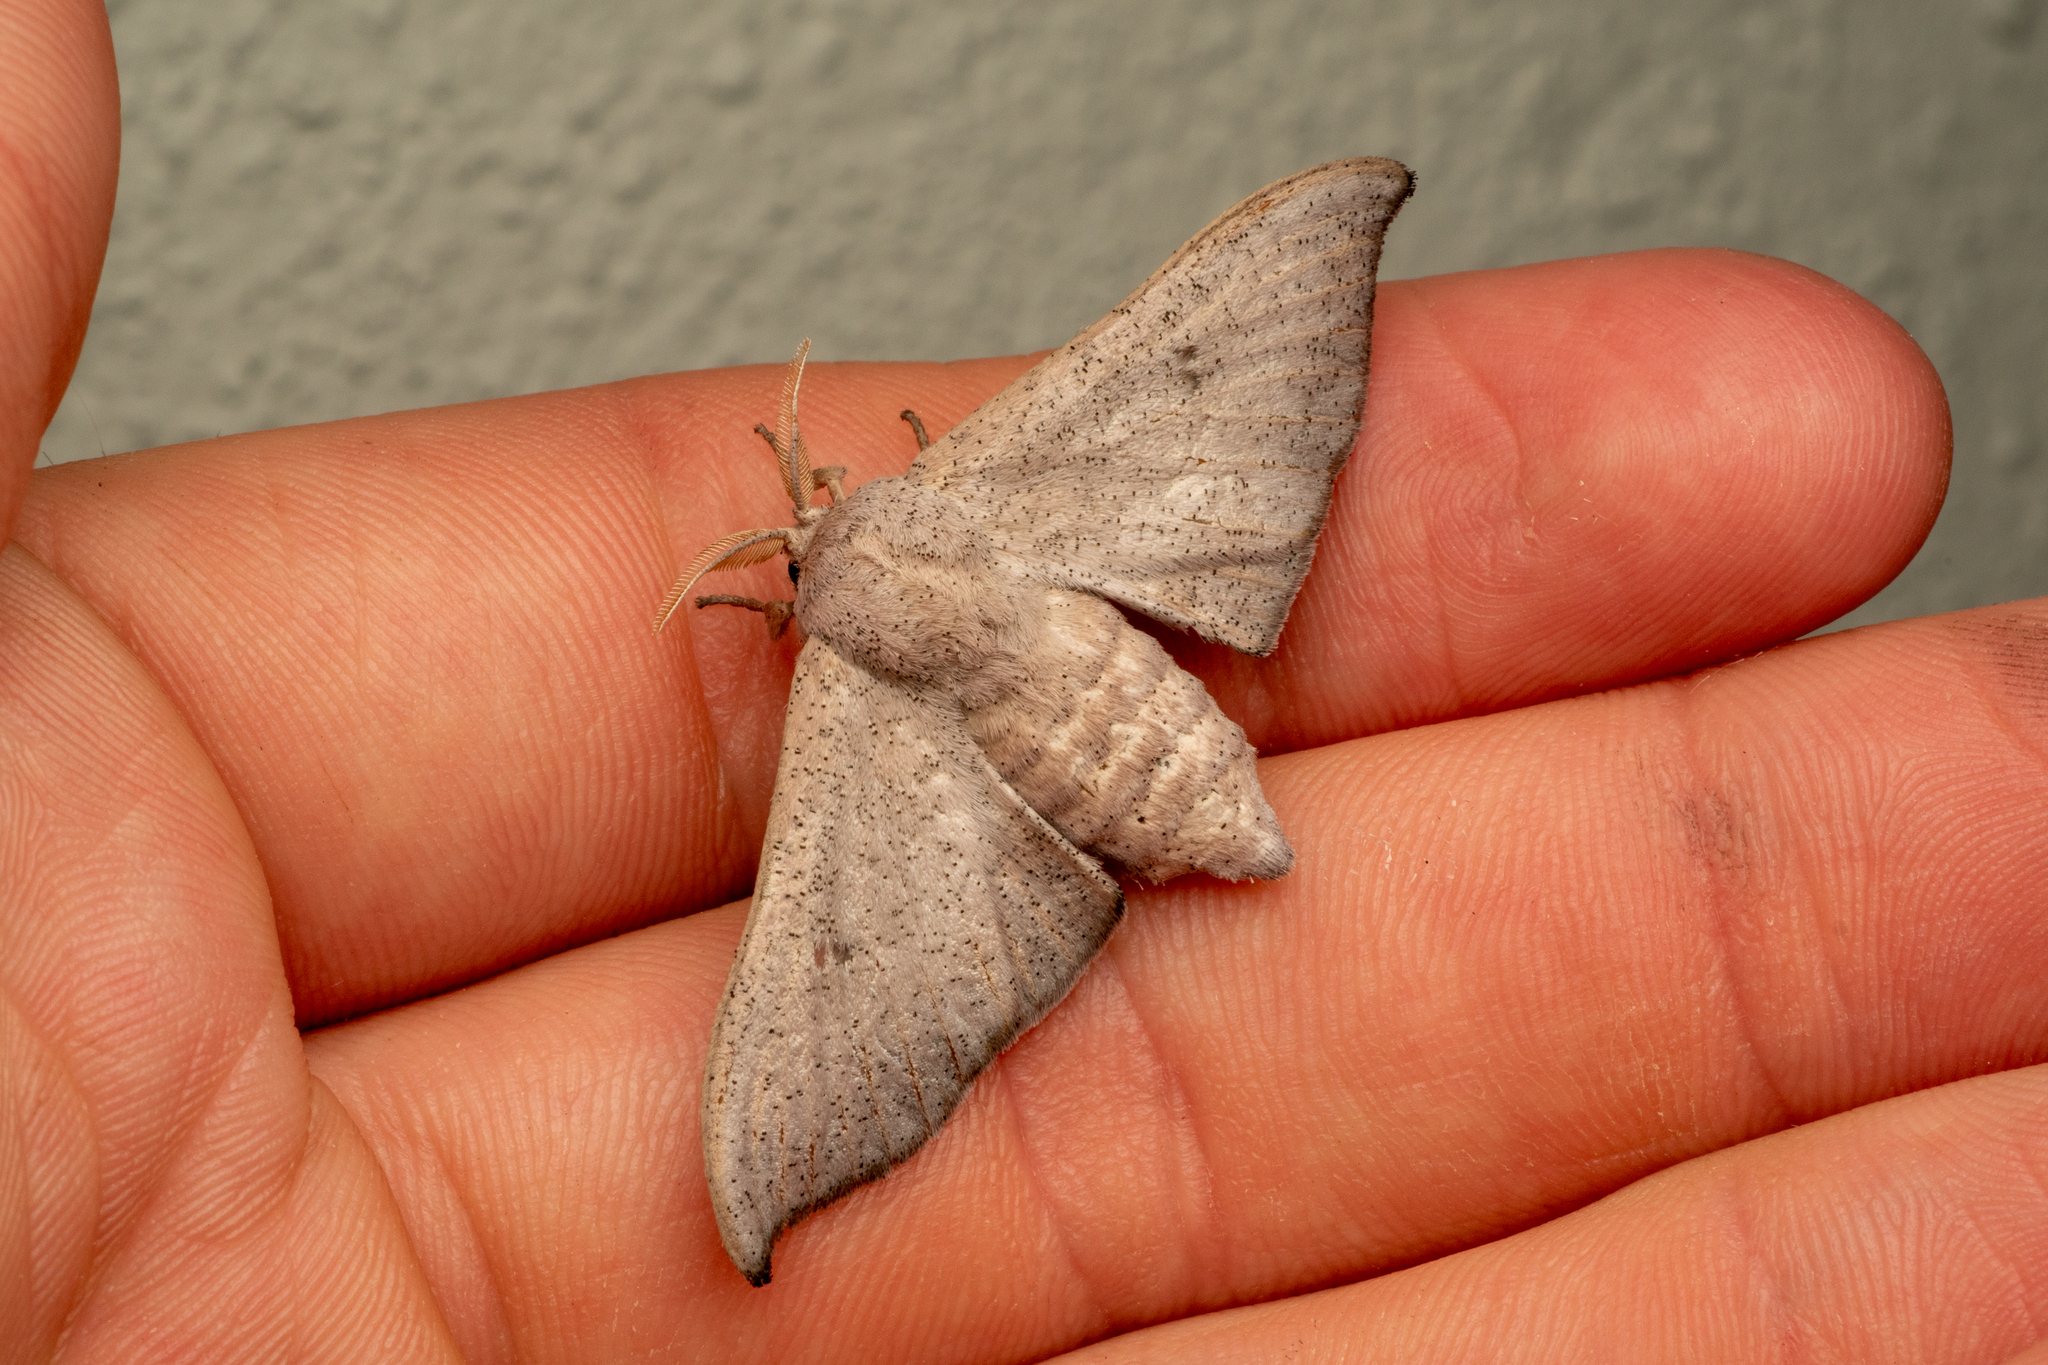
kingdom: Animalia
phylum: Arthropoda
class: Insecta
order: Lepidoptera
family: Mimallonidae
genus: Gonogramma
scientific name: Gonogramma
